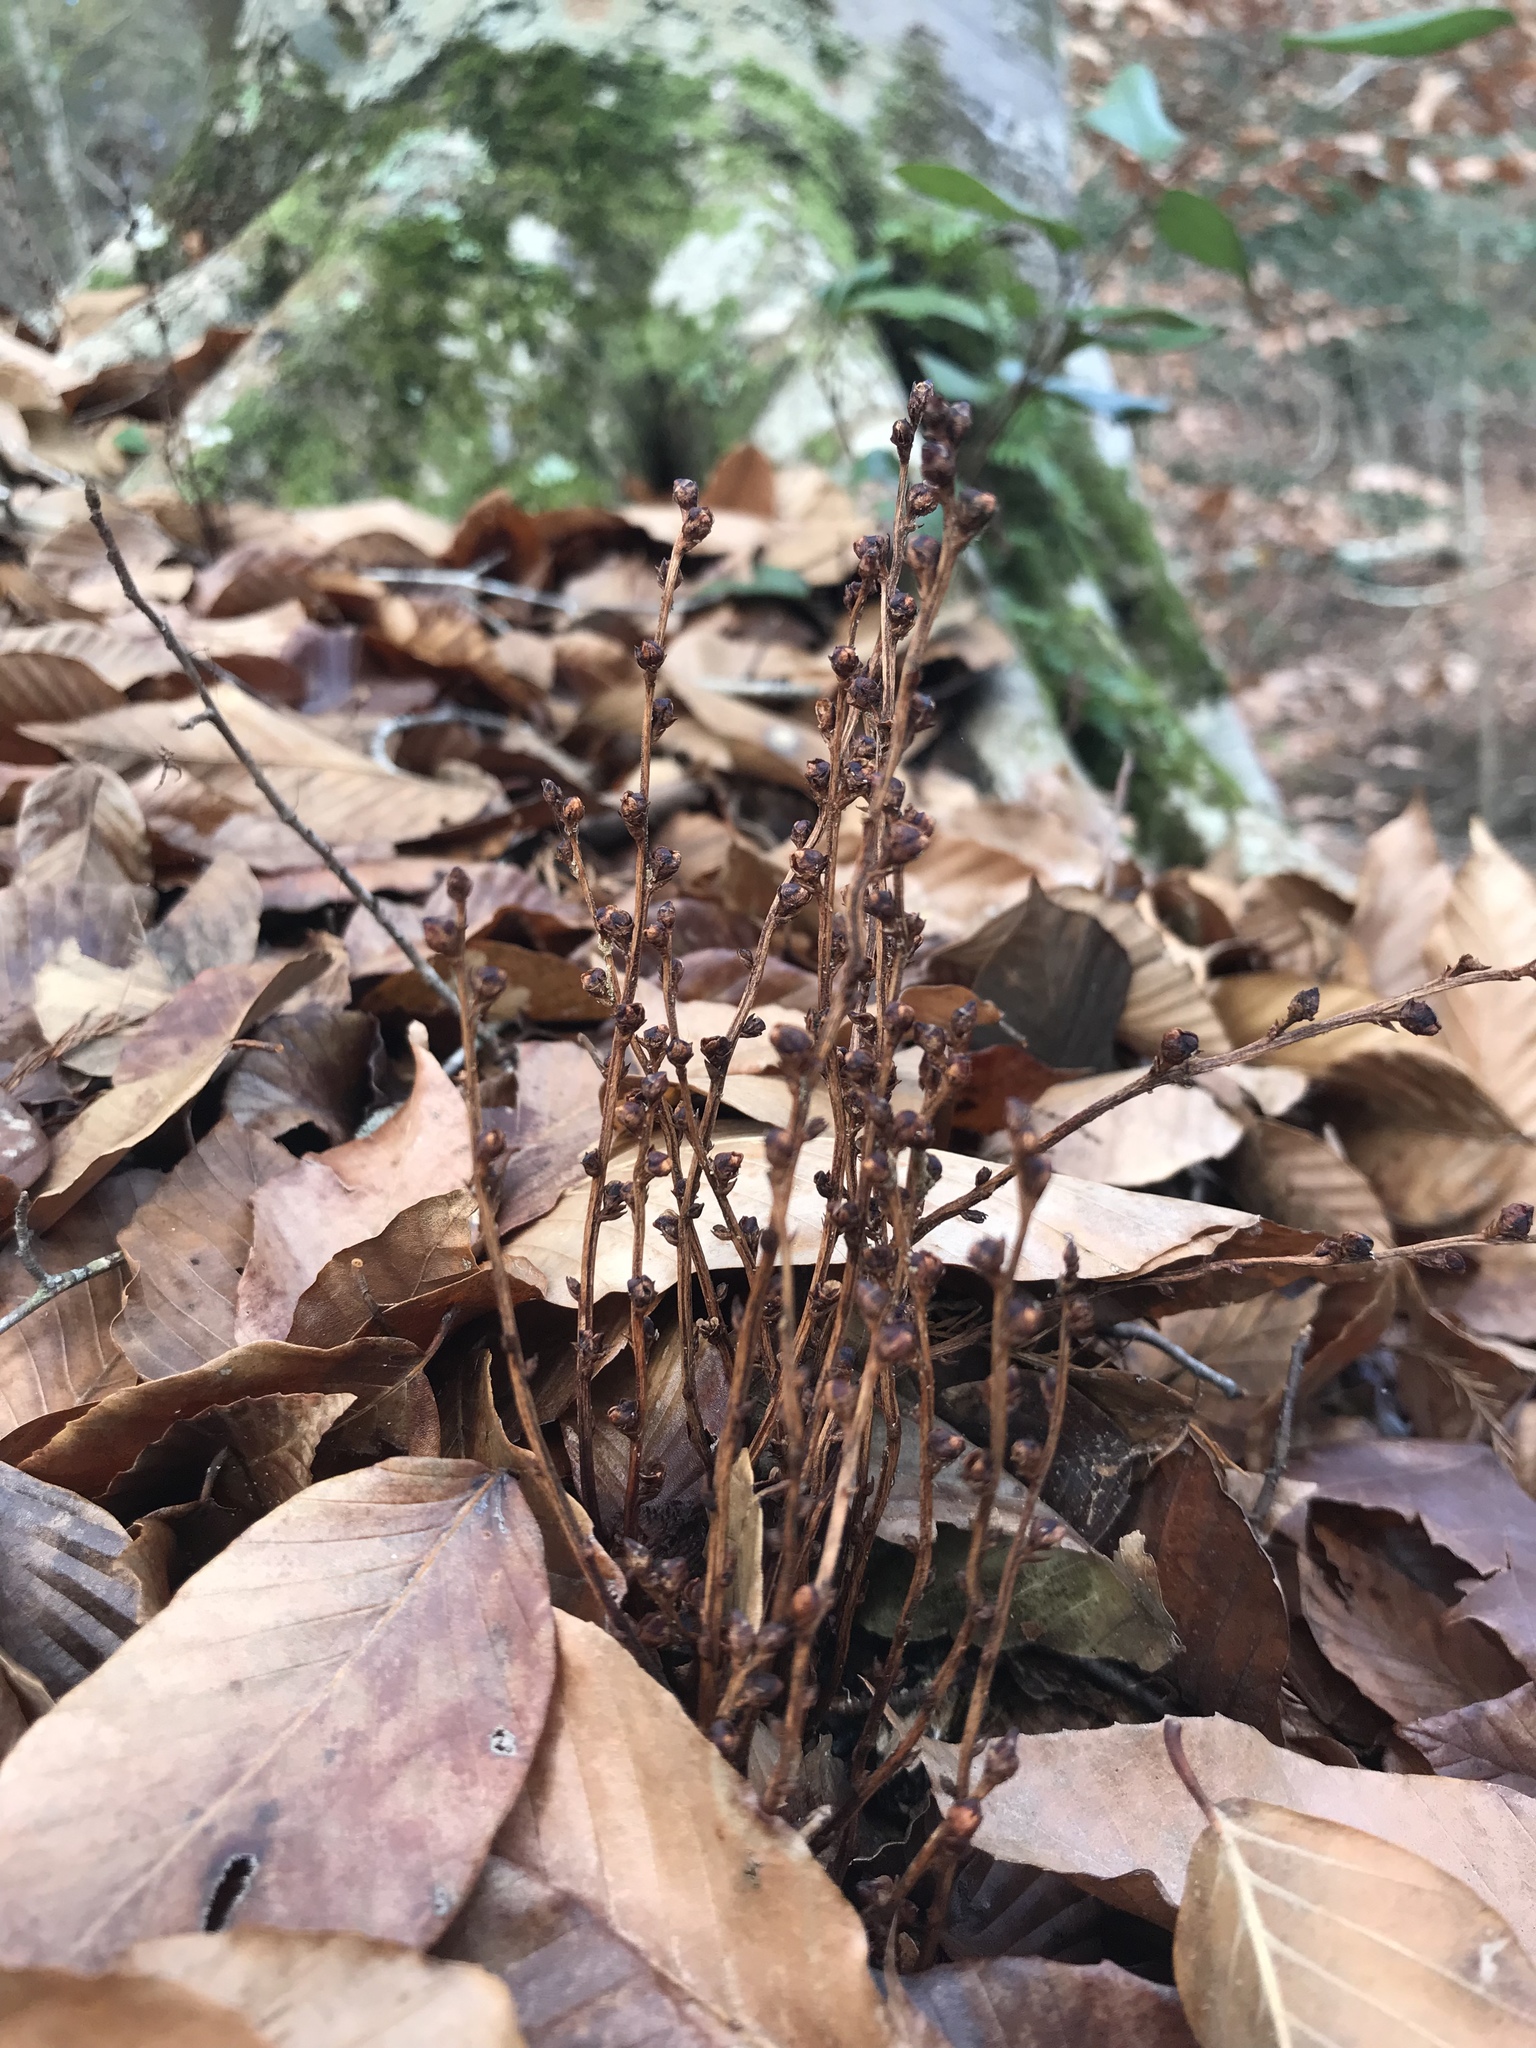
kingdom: Plantae
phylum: Tracheophyta
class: Magnoliopsida
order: Lamiales
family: Orobanchaceae
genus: Epifagus
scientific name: Epifagus virginiana
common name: Beechdrops
